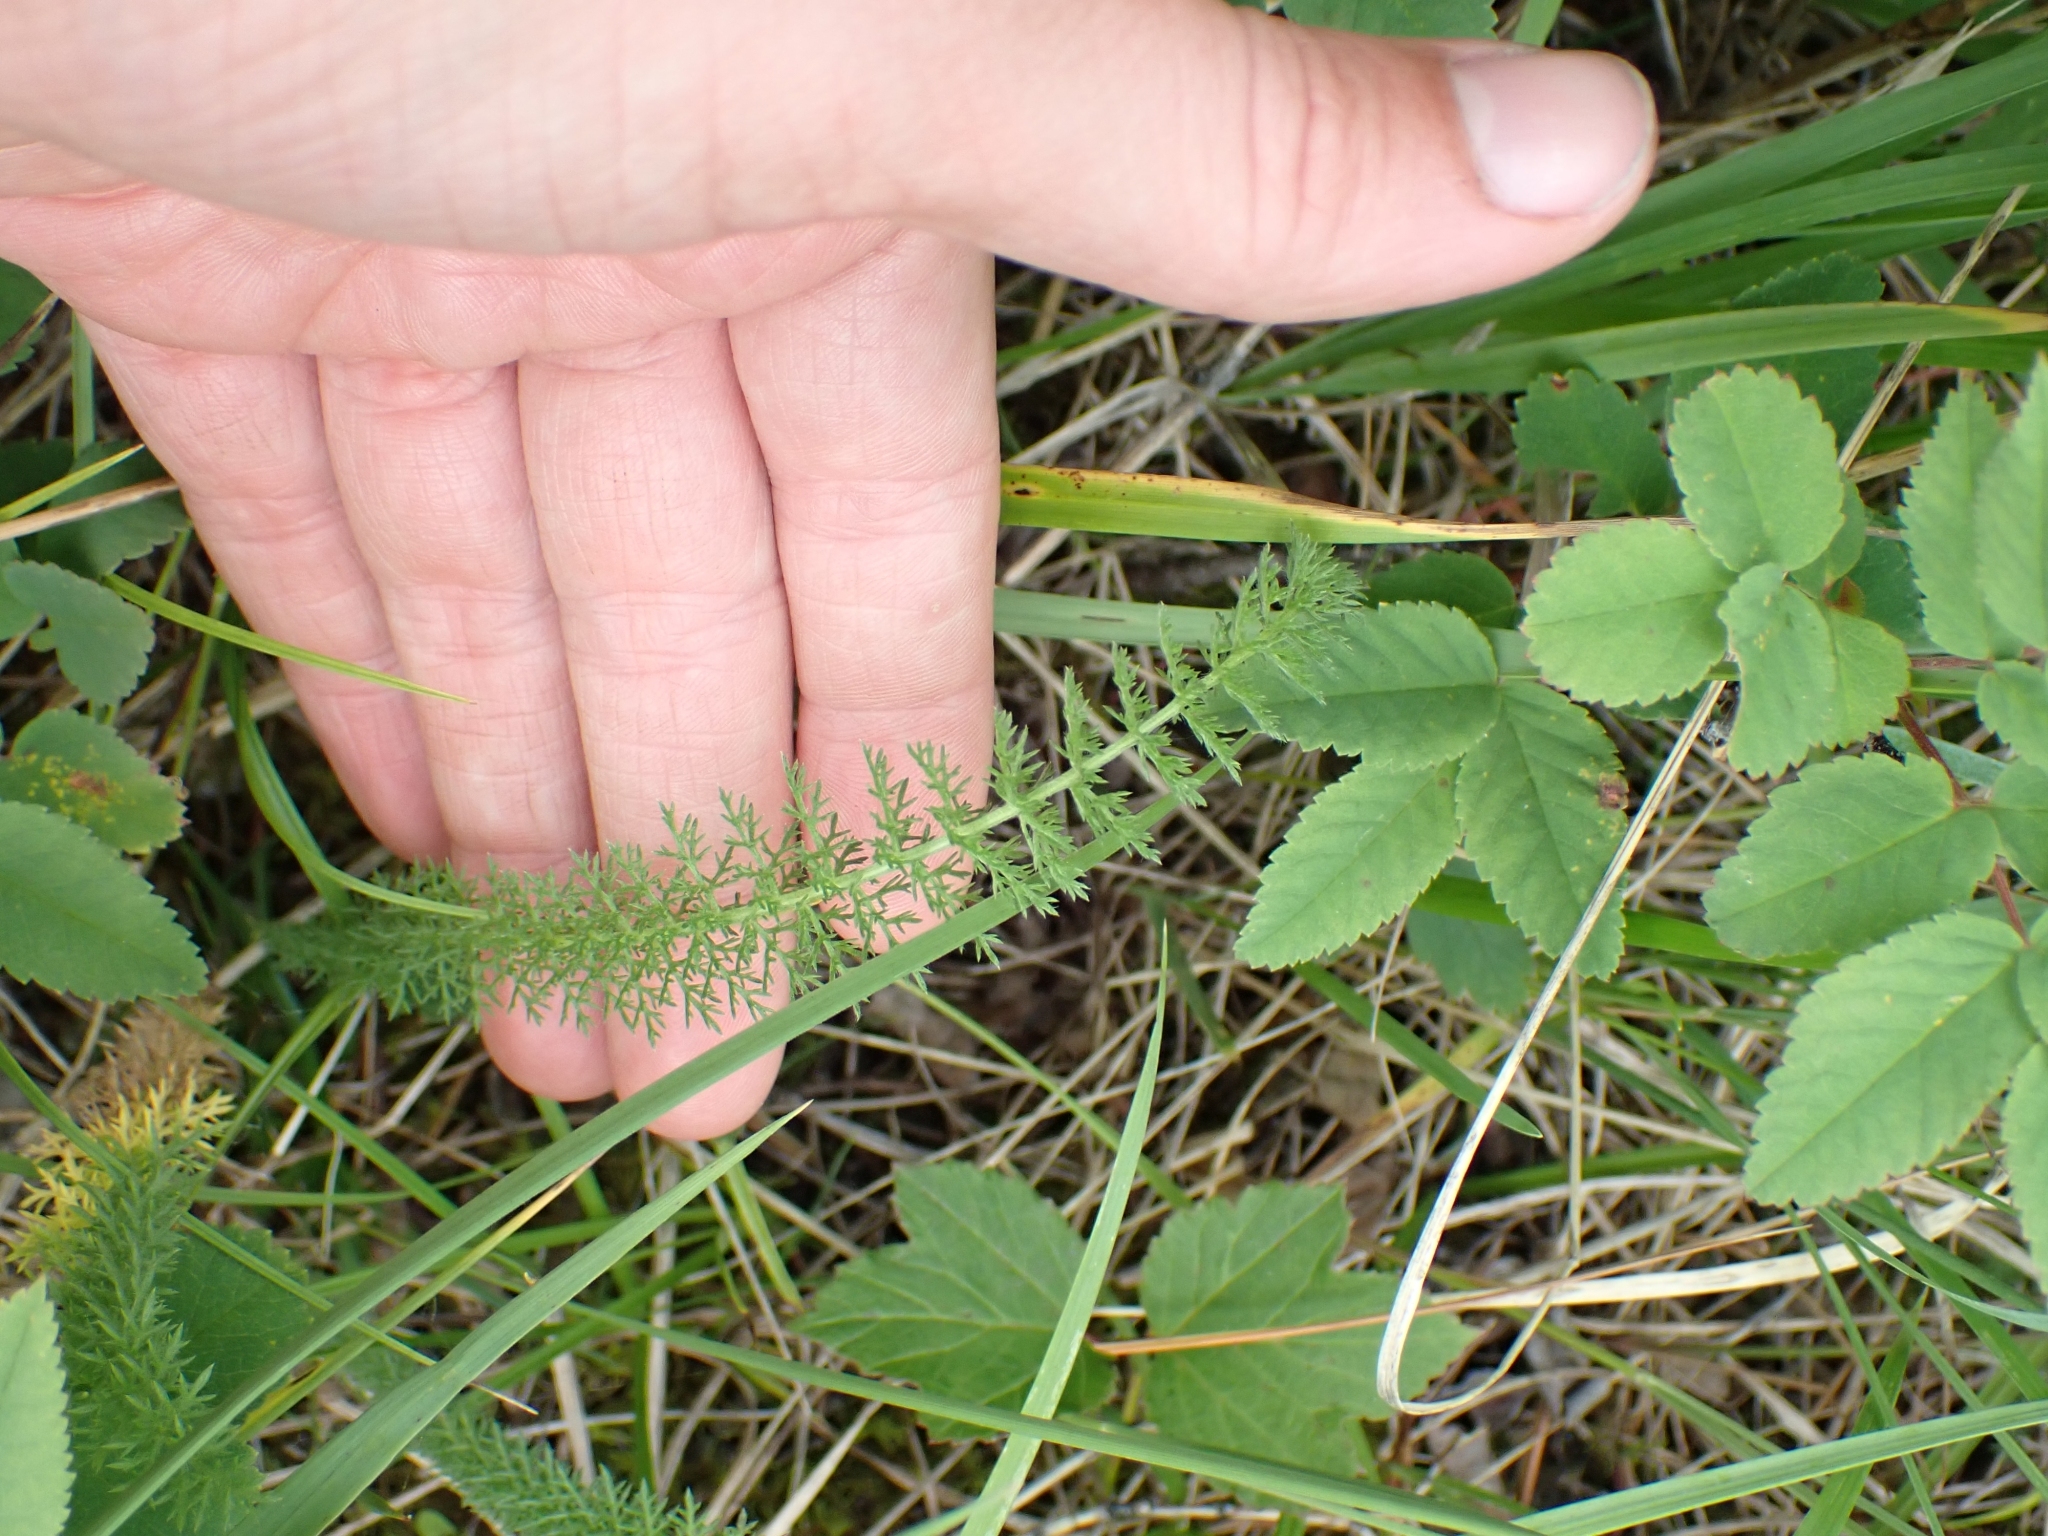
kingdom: Plantae
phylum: Tracheophyta
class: Magnoliopsida
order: Asterales
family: Asteraceae
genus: Achillea
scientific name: Achillea millefolium
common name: Yarrow
